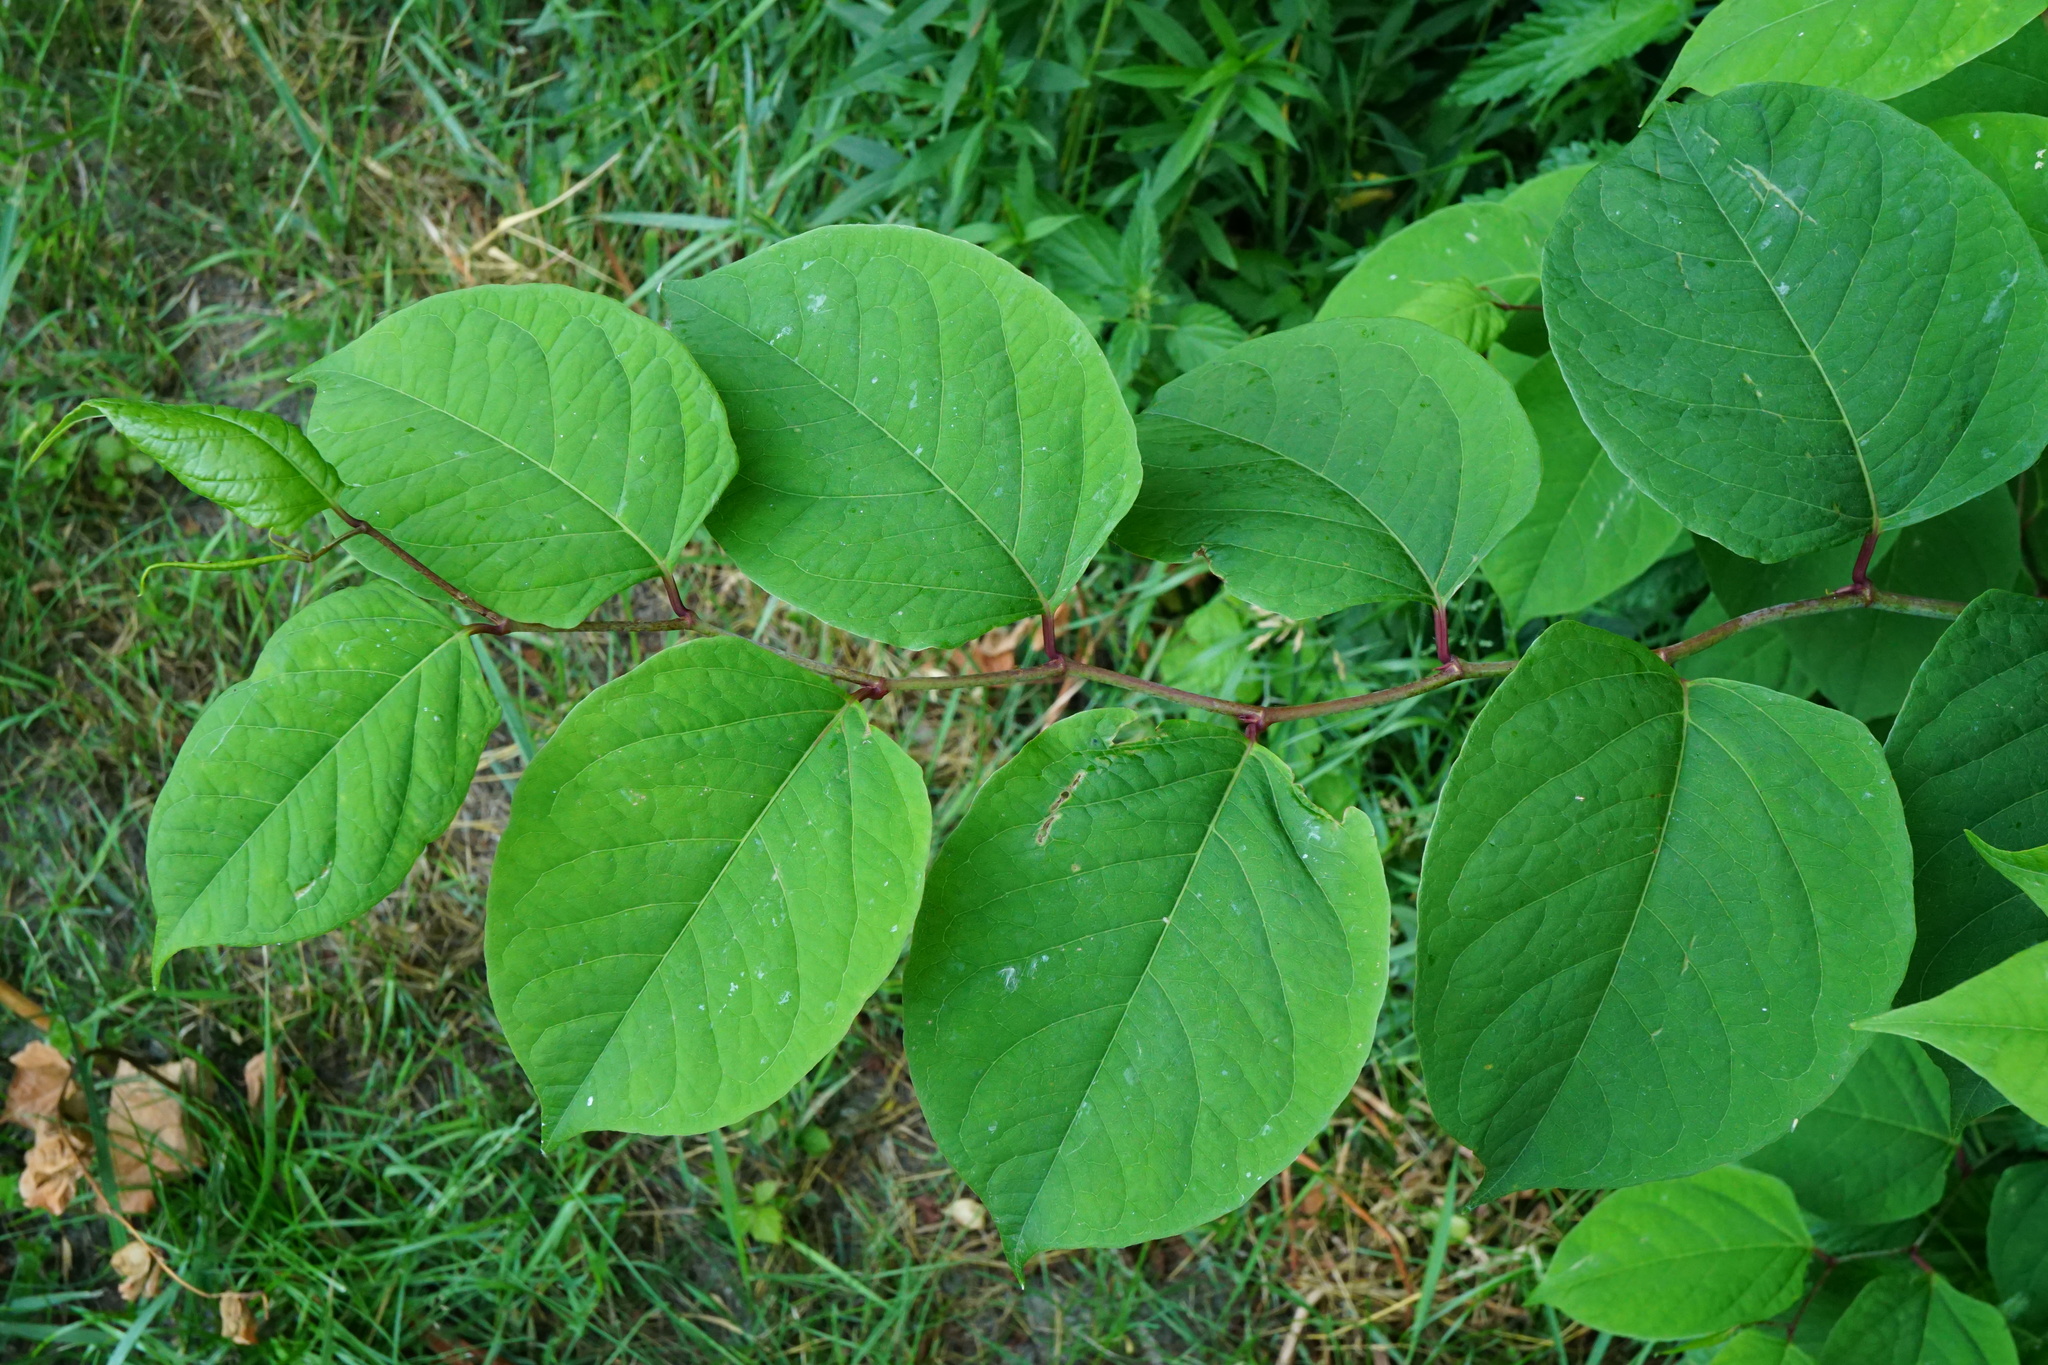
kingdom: Plantae
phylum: Tracheophyta
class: Magnoliopsida
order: Caryophyllales
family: Polygonaceae
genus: Reynoutria
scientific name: Reynoutria japonica
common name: Japanese knotweed
